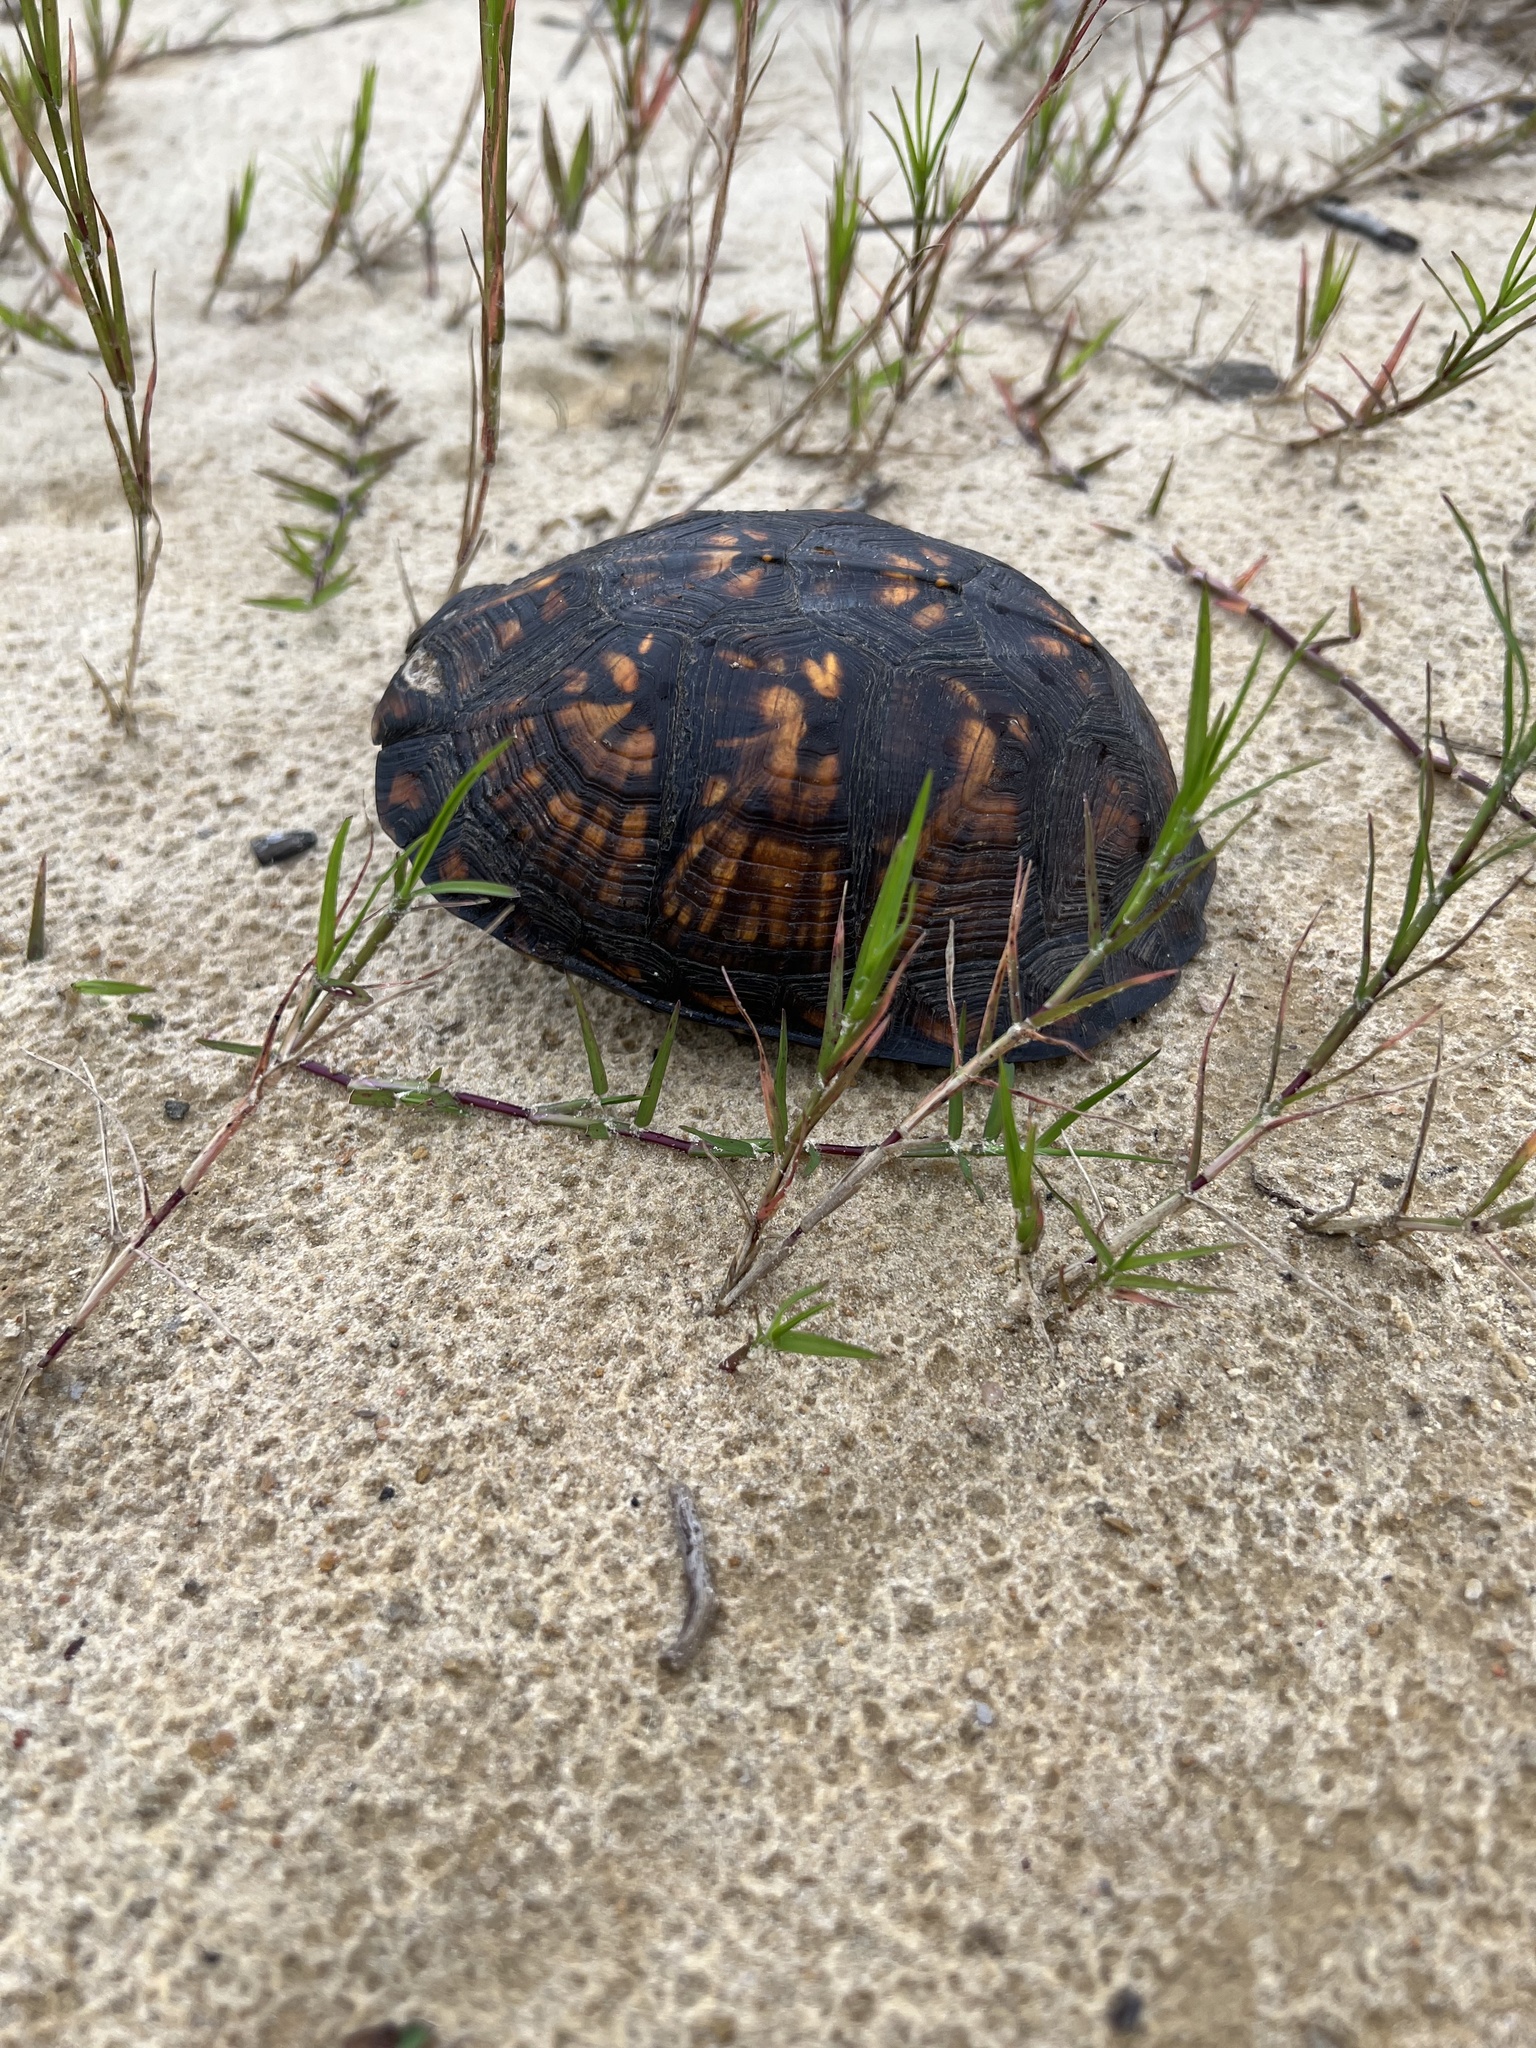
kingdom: Animalia
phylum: Chordata
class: Testudines
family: Emydidae
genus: Terrapene
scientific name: Terrapene carolina
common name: Common box turtle
